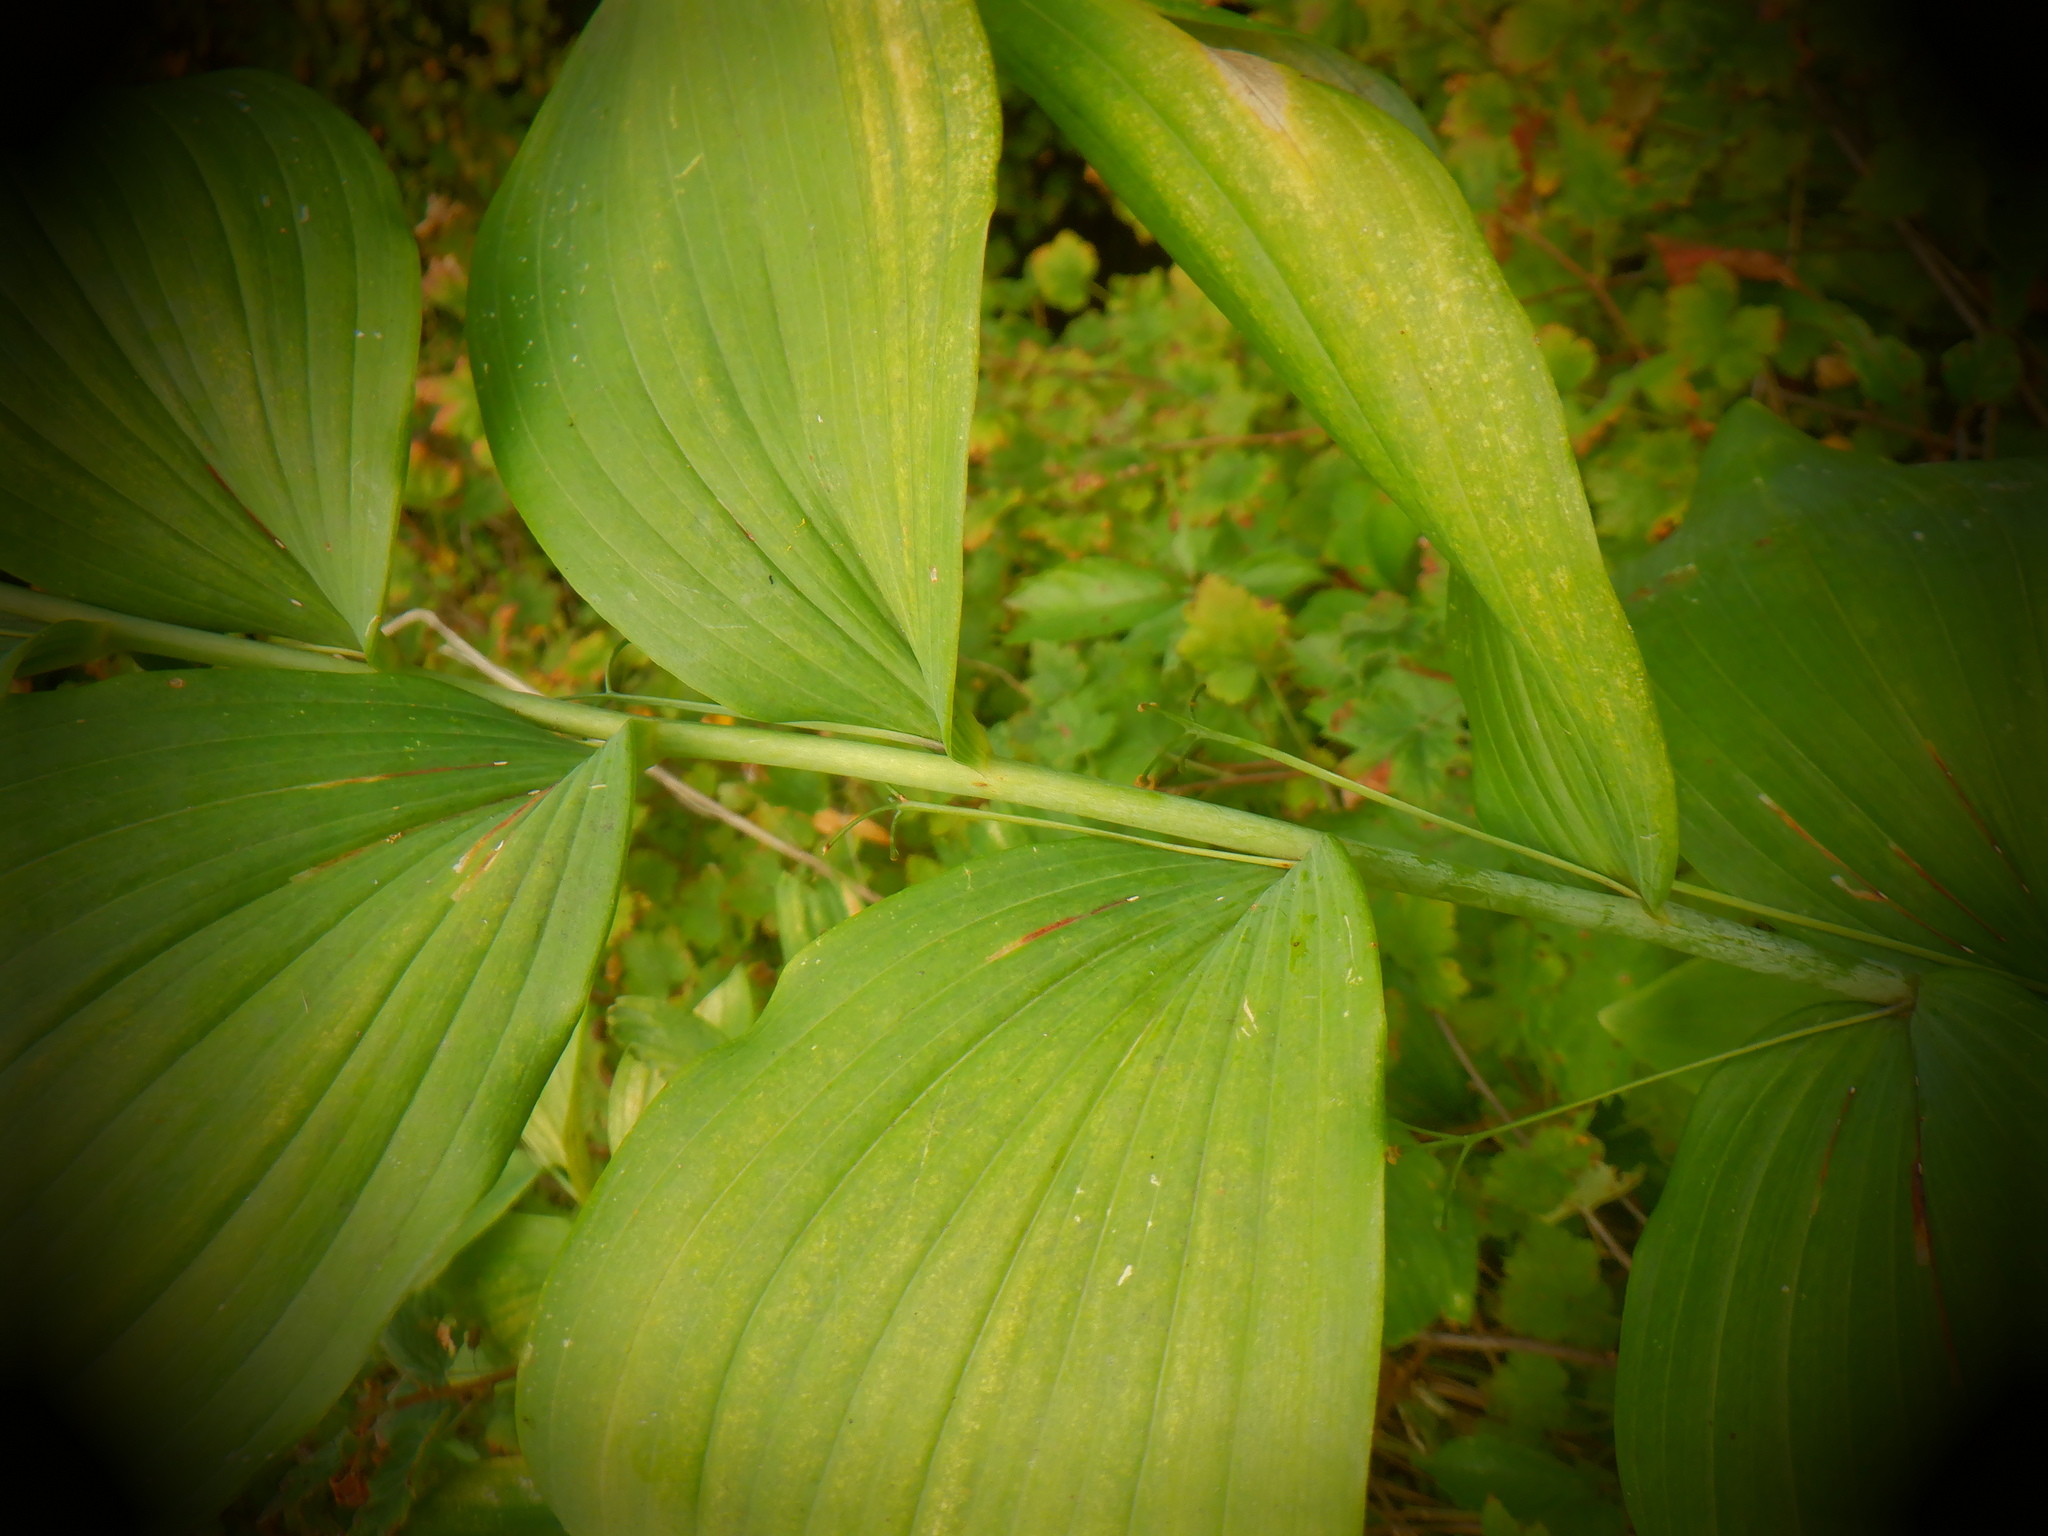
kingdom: Plantae
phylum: Tracheophyta
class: Liliopsida
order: Asparagales
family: Asparagaceae
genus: Polygonatum
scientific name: Polygonatum biflorum
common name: American solomon's-seal
